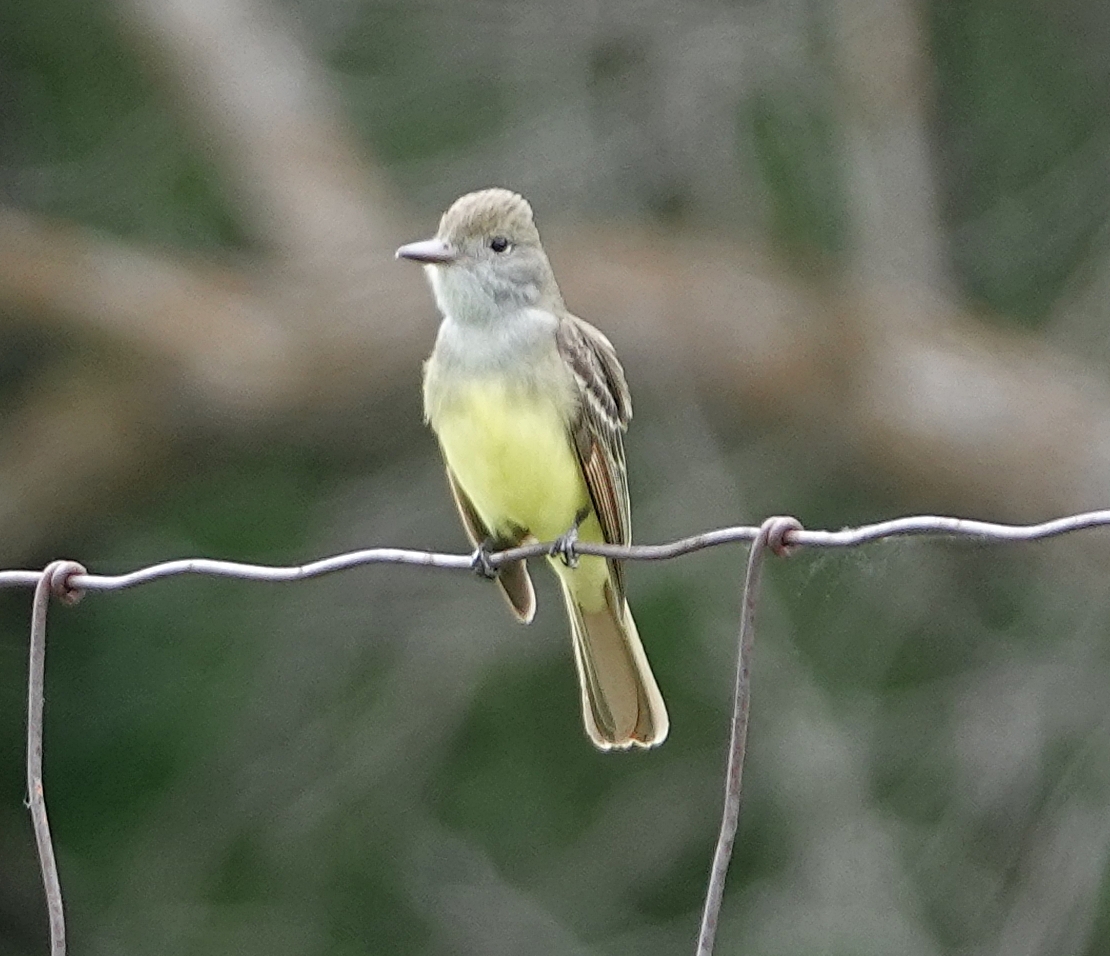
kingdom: Animalia
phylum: Chordata
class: Aves
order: Passeriformes
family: Tyrannidae
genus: Myiarchus
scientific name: Myiarchus crinitus
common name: Great crested flycatcher
